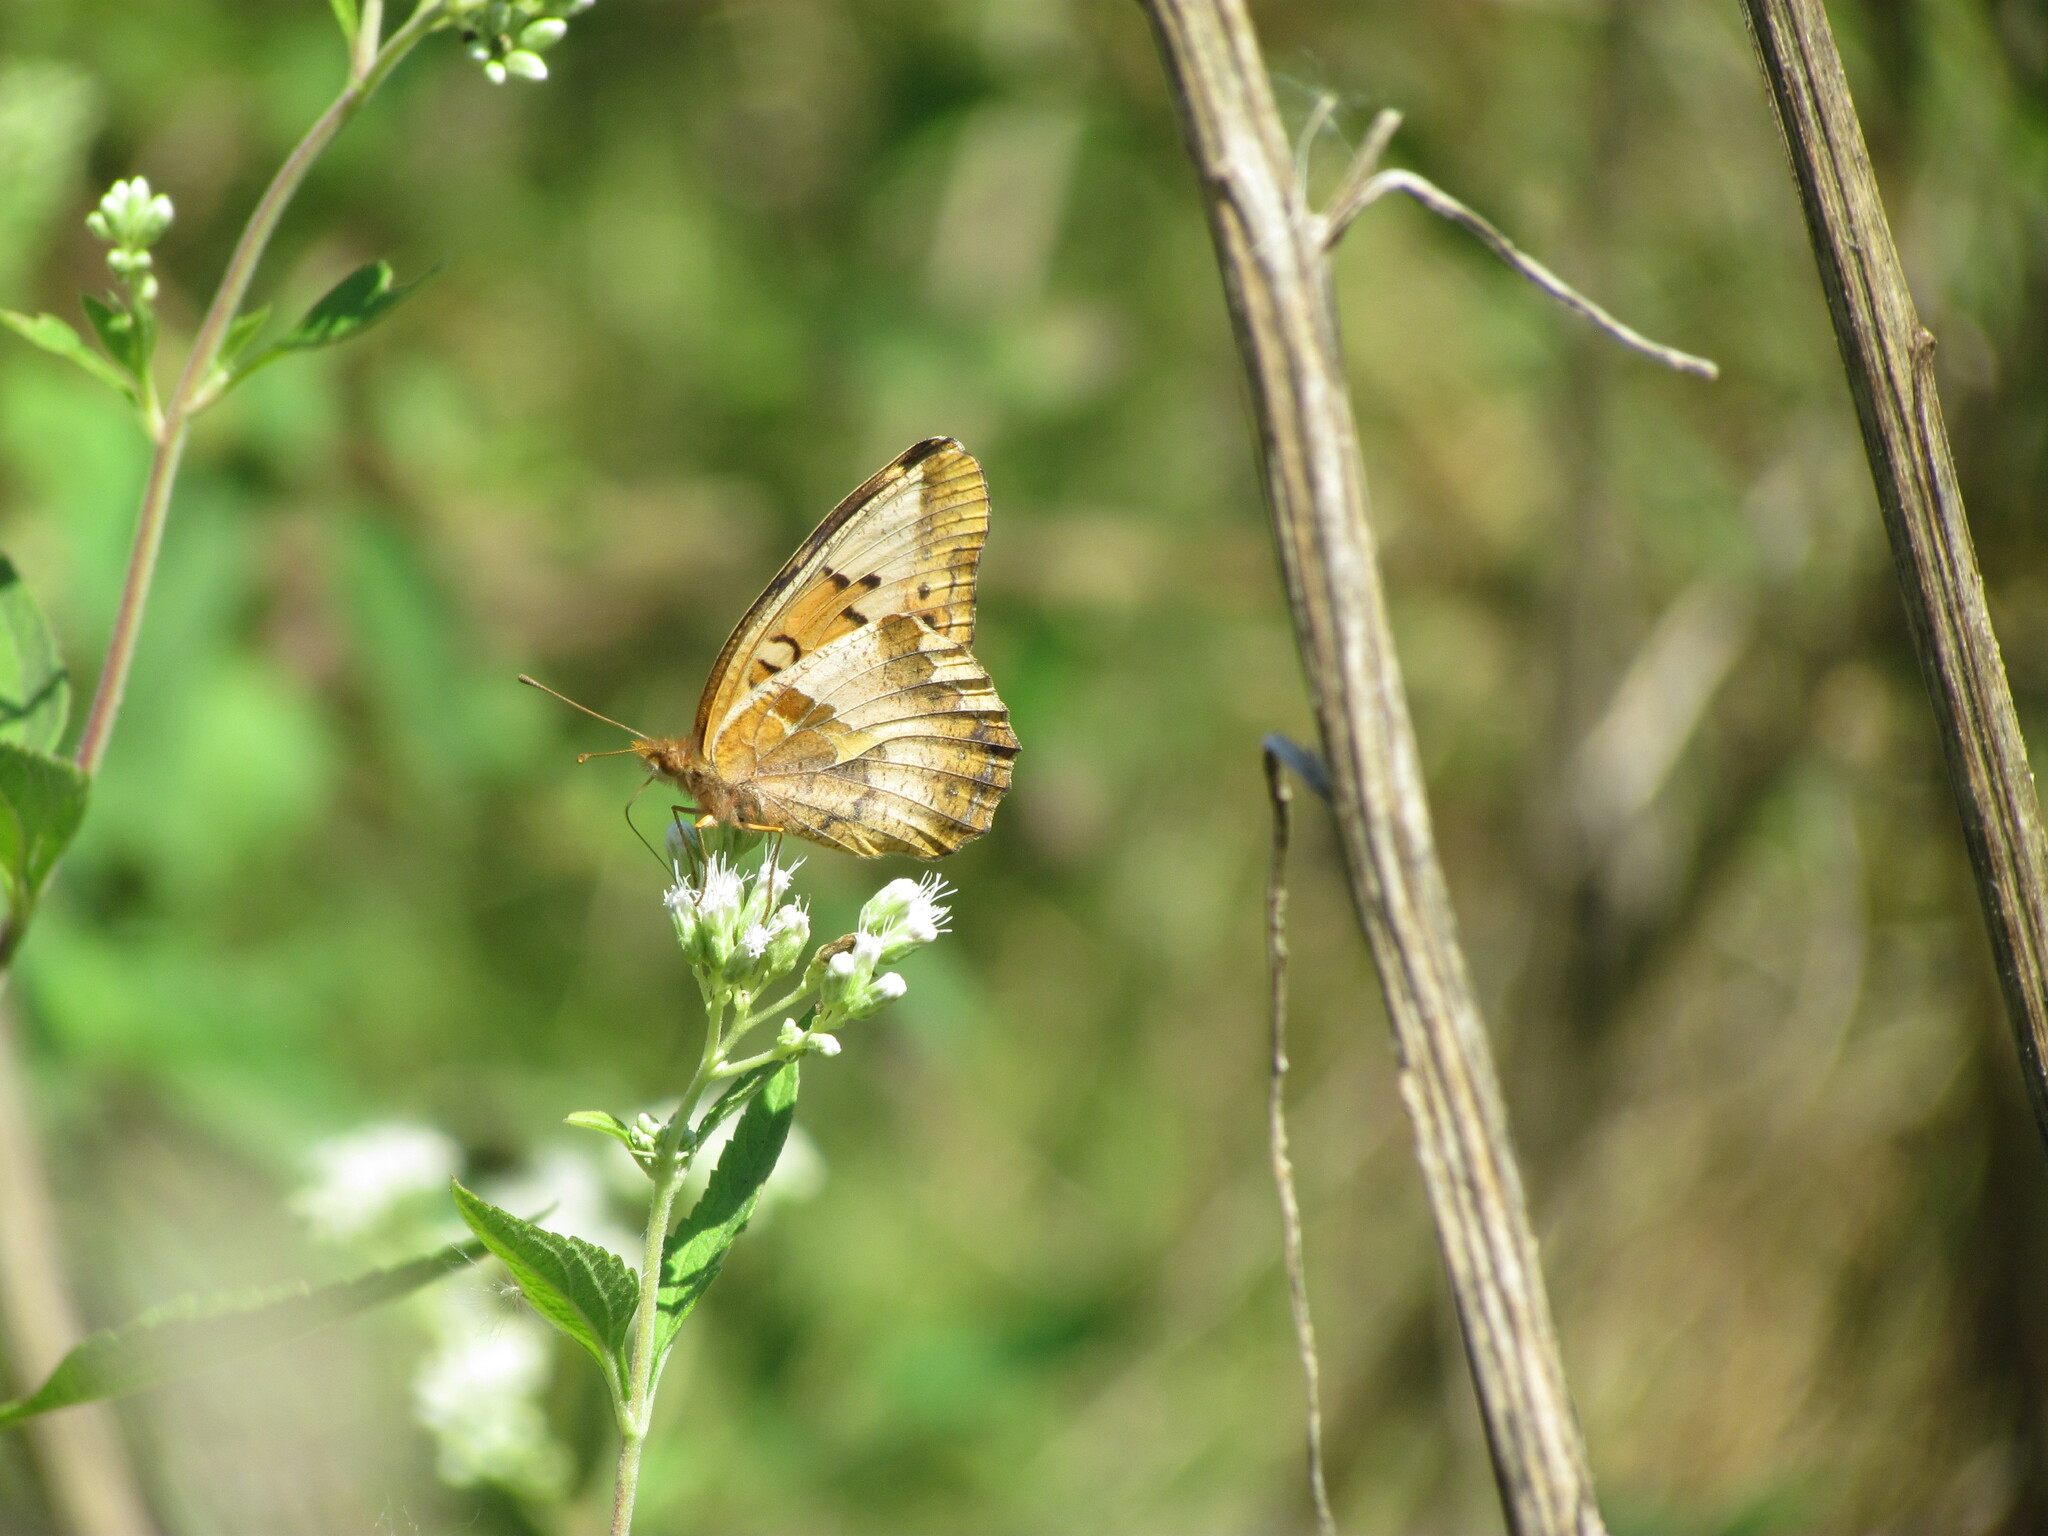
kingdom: Animalia
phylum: Arthropoda
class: Insecta
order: Lepidoptera
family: Nymphalidae
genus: Euptoieta
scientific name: Euptoieta hortensia
